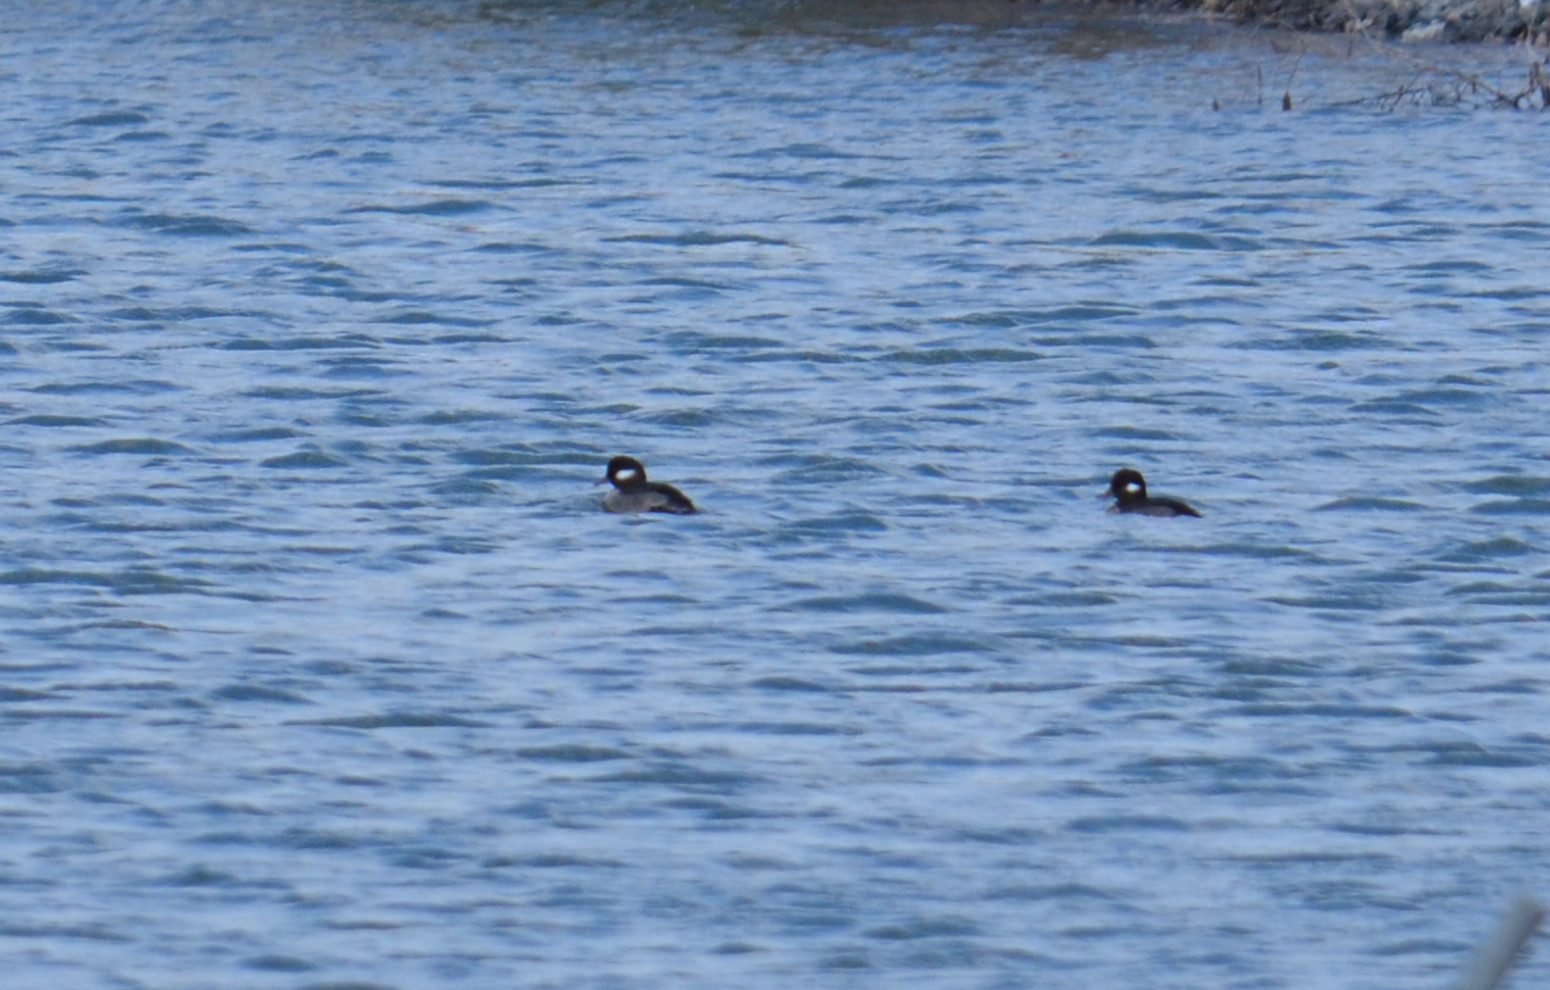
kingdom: Animalia
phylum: Chordata
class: Aves
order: Anseriformes
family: Anatidae
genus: Bucephala
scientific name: Bucephala albeola
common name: Bufflehead
